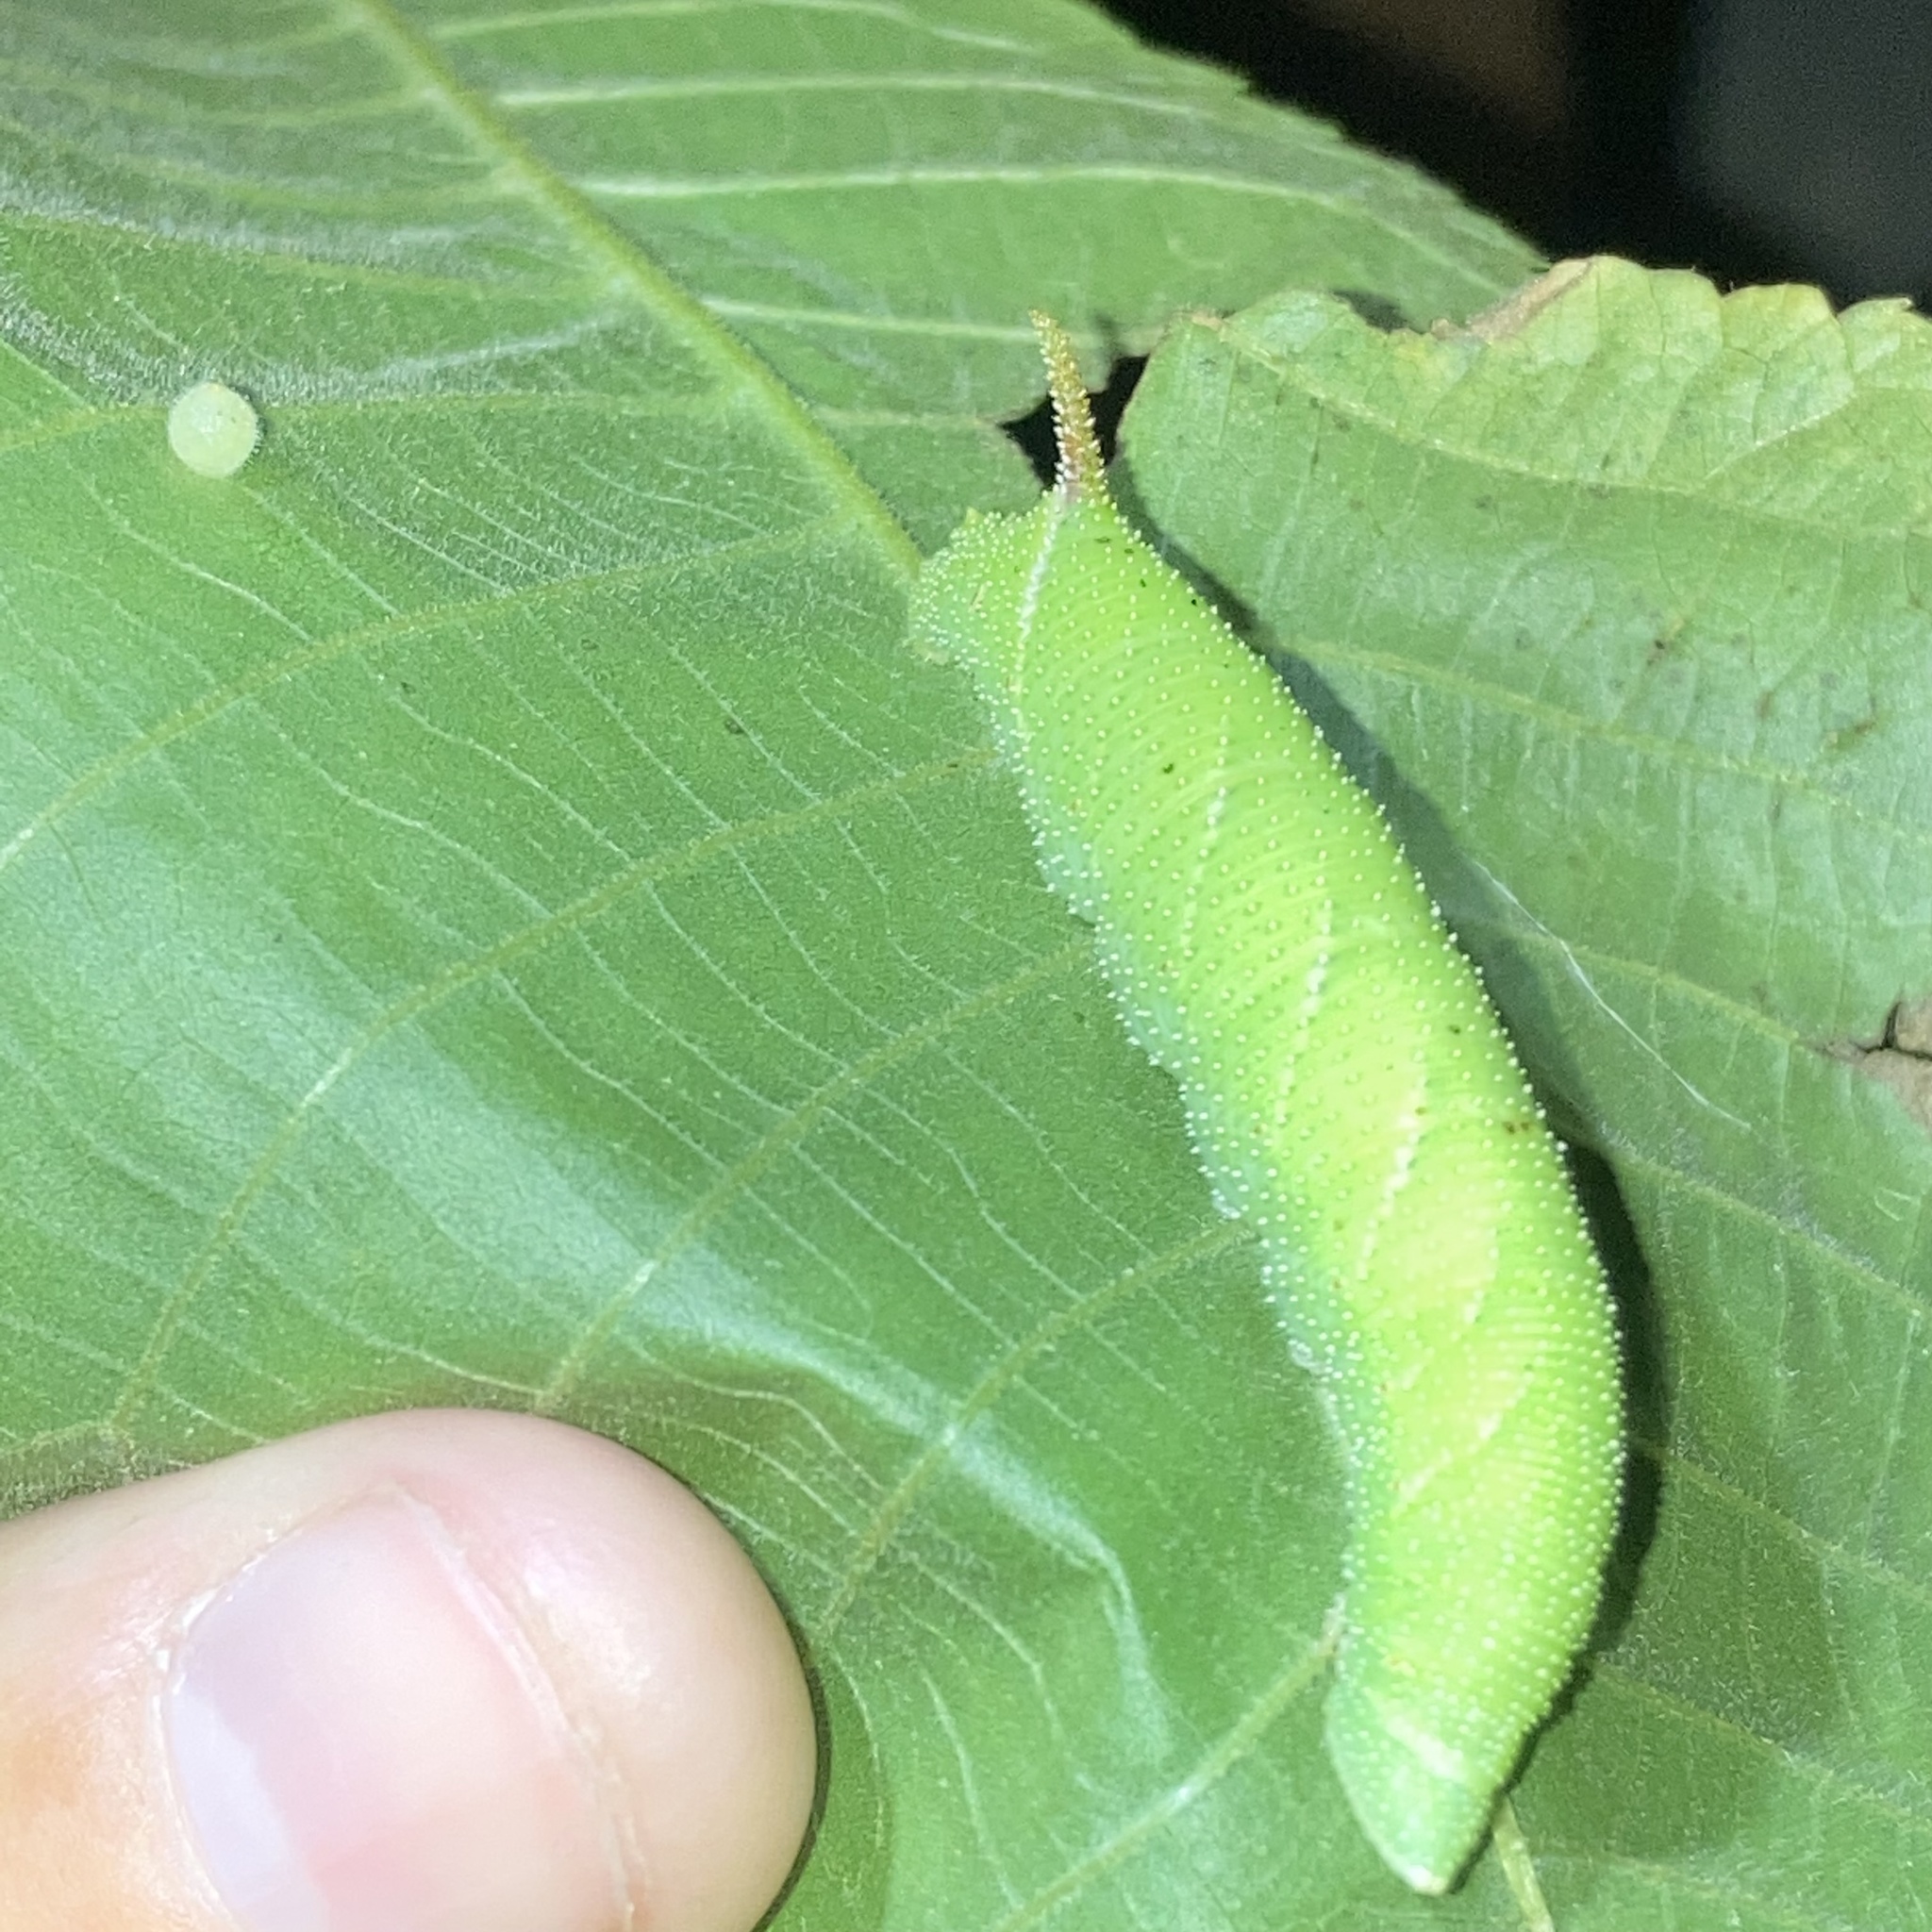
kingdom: Animalia
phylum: Arthropoda
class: Insecta
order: Lepidoptera
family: Sphingidae
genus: Amorpha
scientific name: Amorpha juglandis
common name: Walnut sphinx
